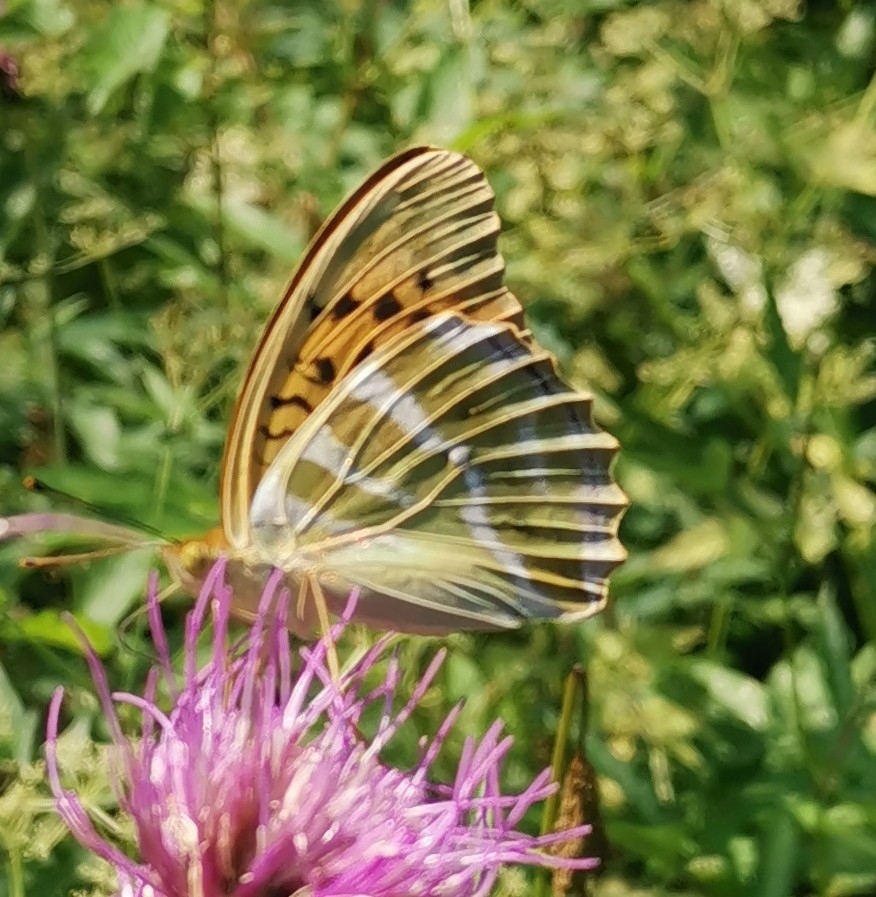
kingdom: Animalia
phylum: Arthropoda
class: Insecta
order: Lepidoptera
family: Nymphalidae
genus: Argynnis
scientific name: Argynnis paphia
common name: Silver-washed fritillary
